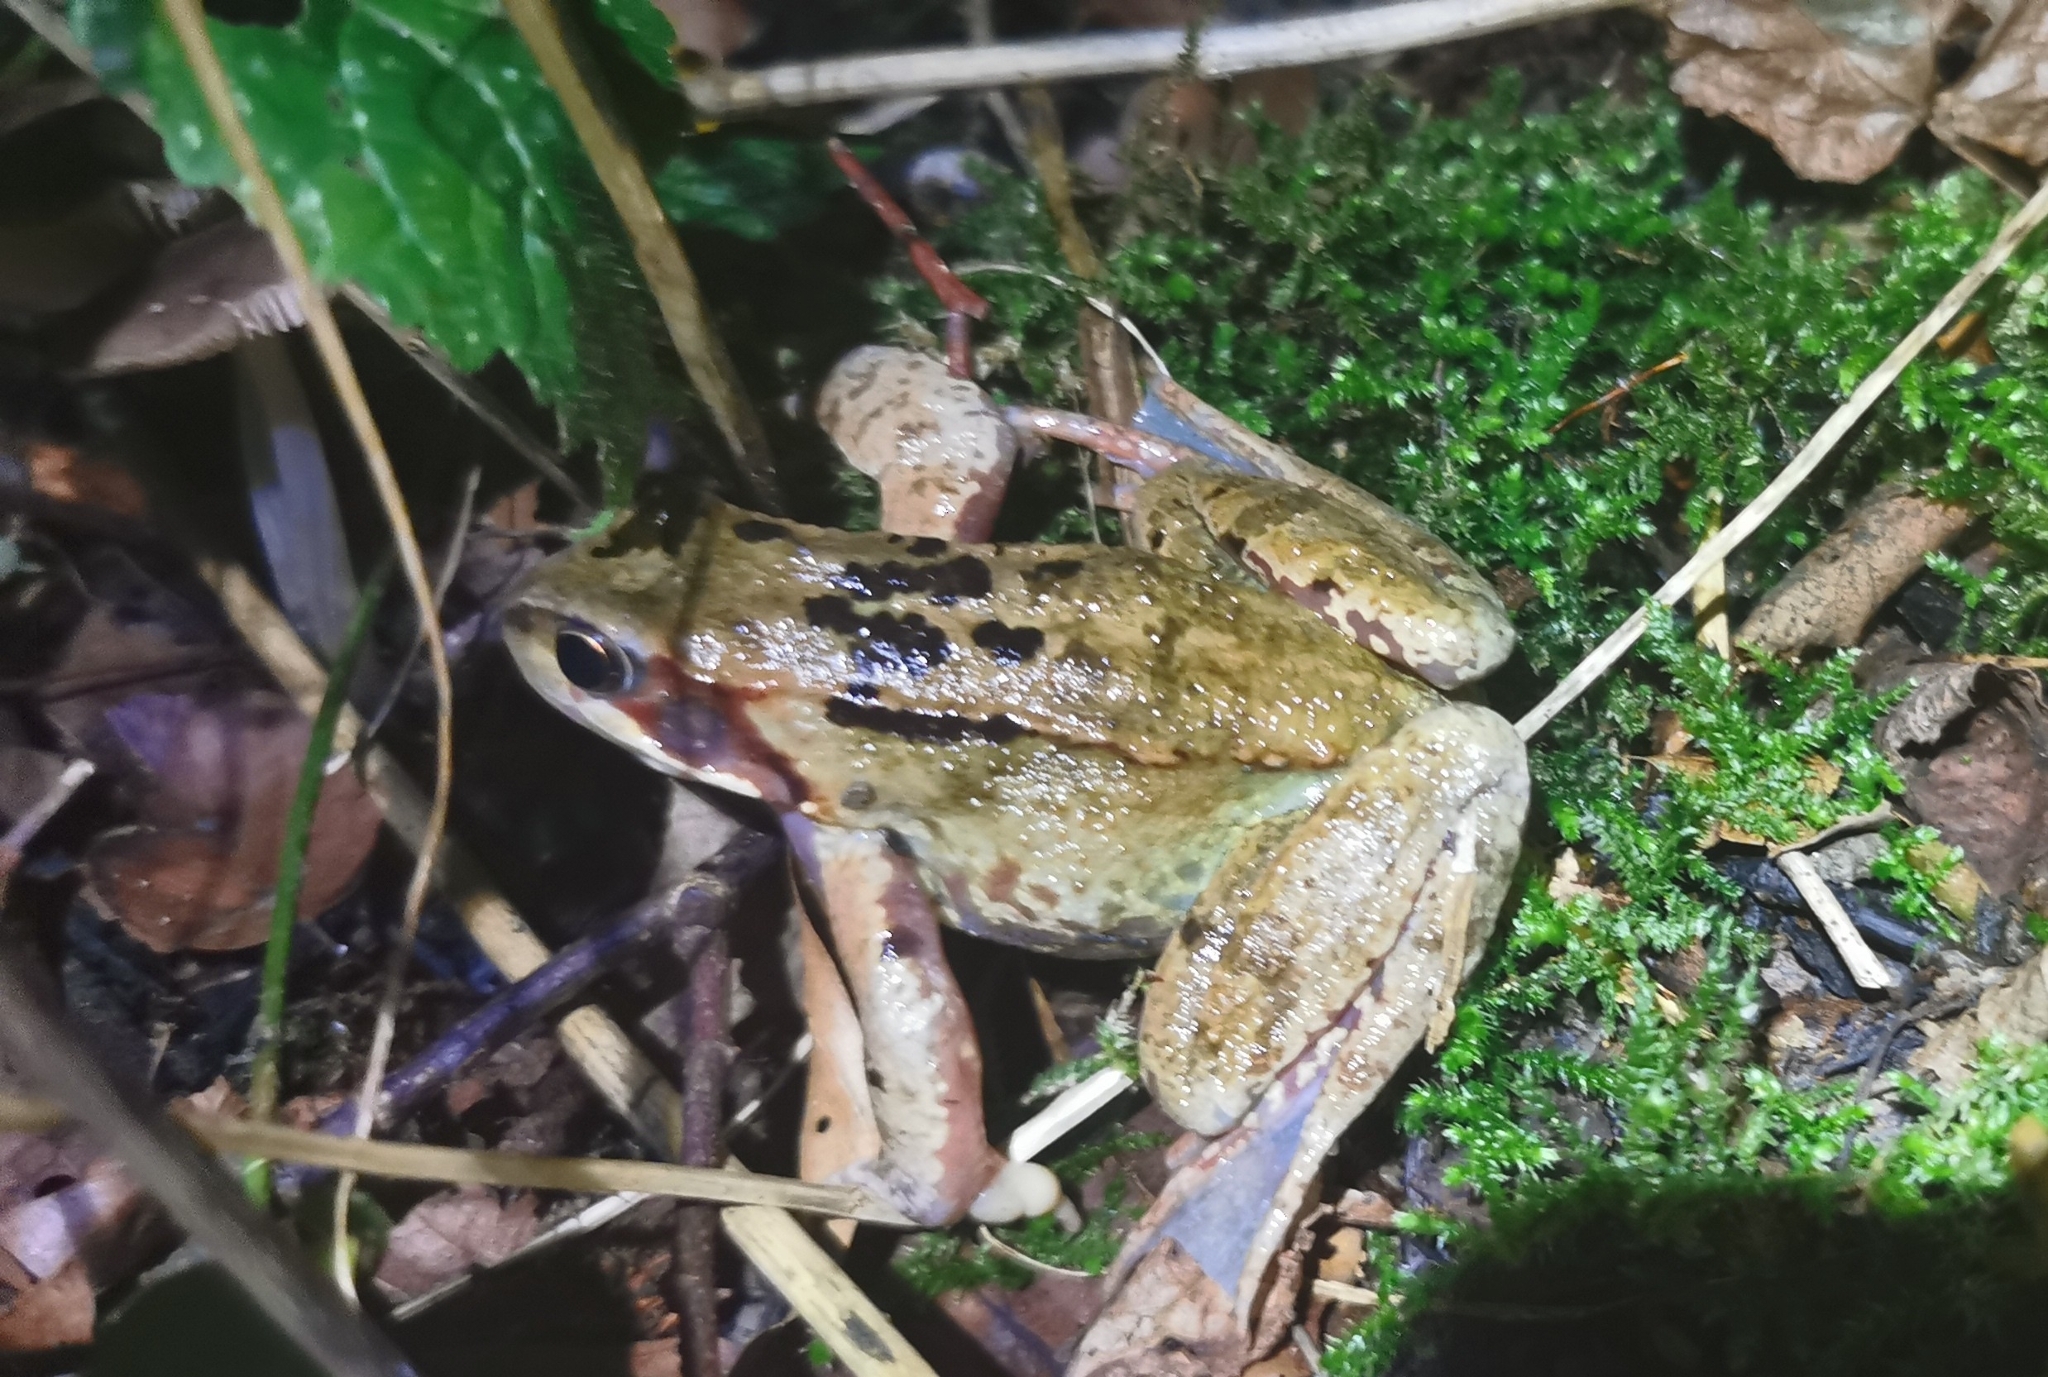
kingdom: Animalia
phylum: Chordata
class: Amphibia
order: Anura
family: Ranidae
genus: Rana
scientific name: Rana temporaria
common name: Common frog
